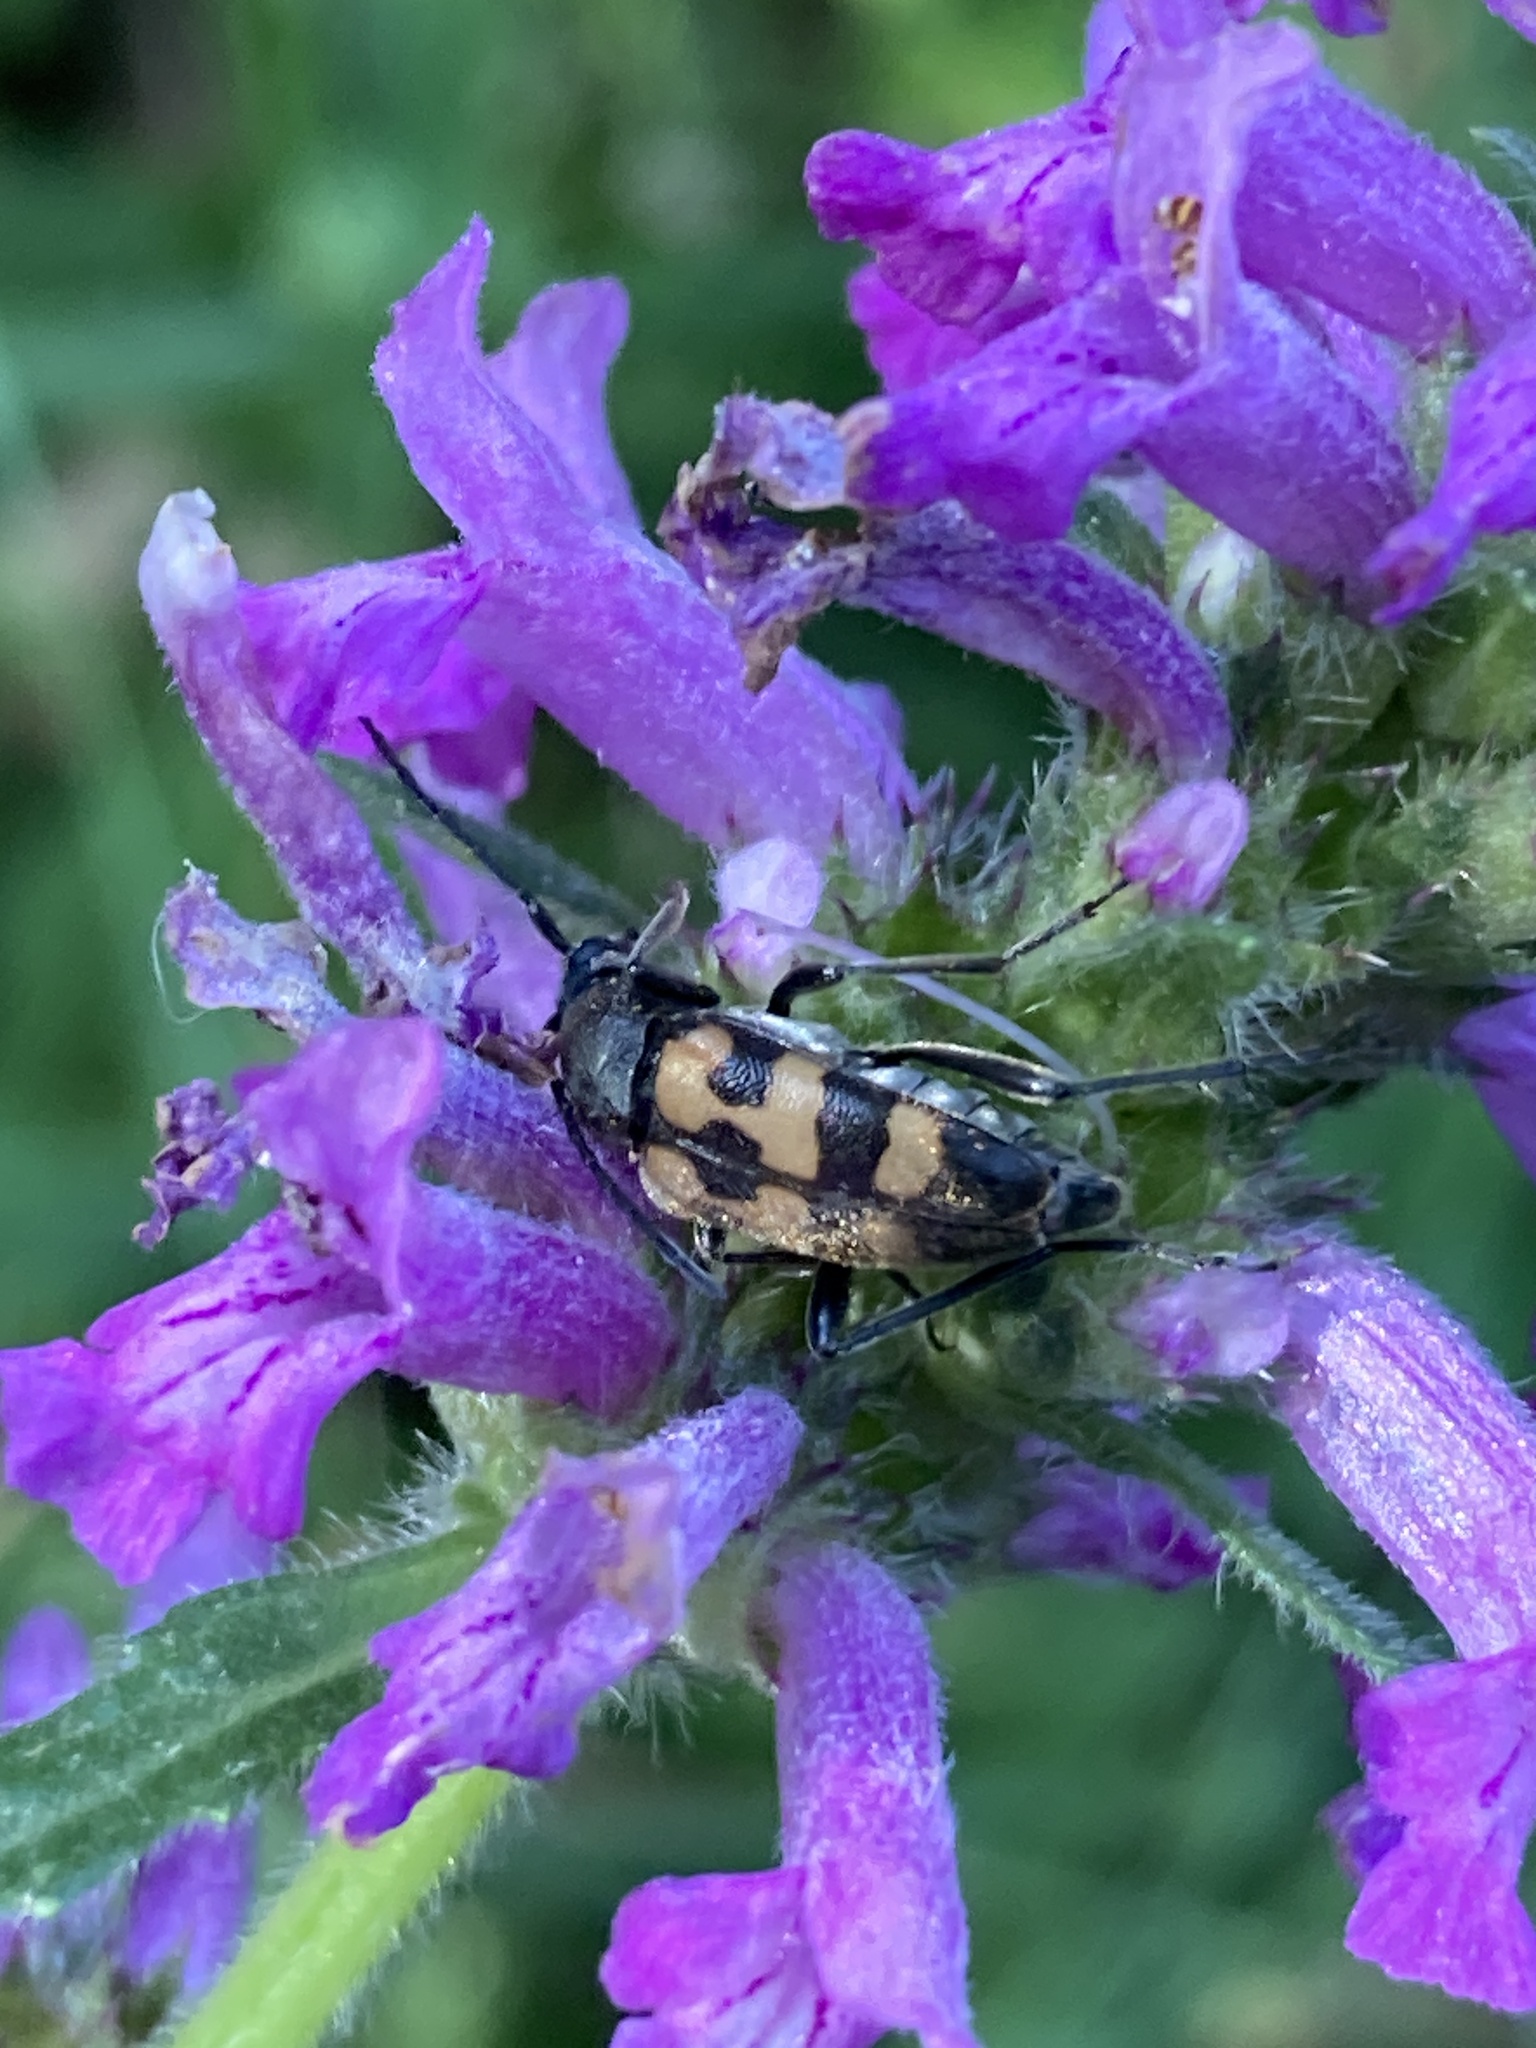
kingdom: Animalia
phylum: Arthropoda
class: Insecta
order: Coleoptera
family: Cerambycidae
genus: Pachytodes
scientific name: Pachytodes
